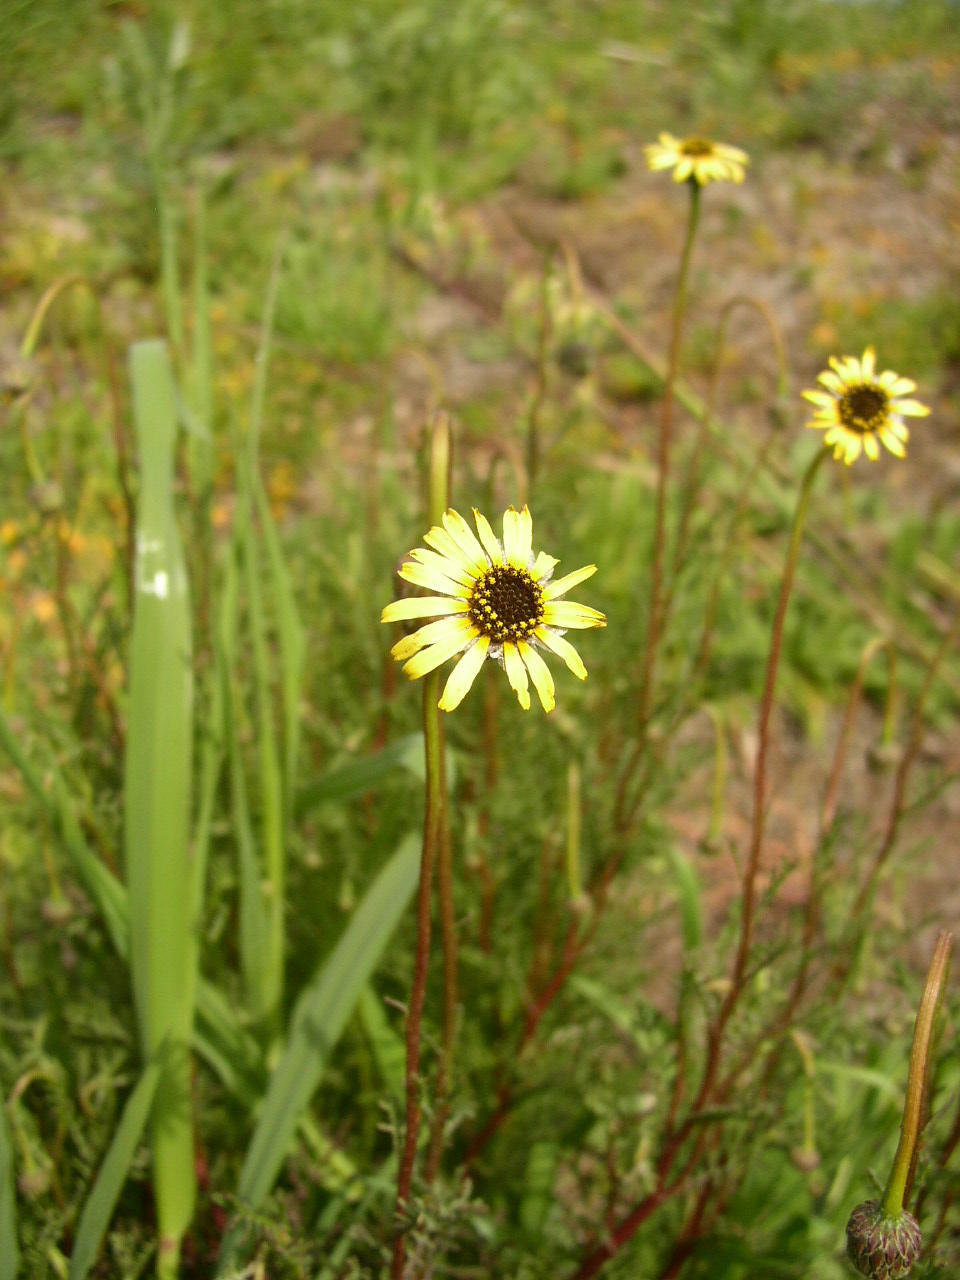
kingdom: Plantae
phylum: Tracheophyta
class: Magnoliopsida
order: Asterales
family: Asteraceae
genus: Ursinia
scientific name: Ursinia anthemoides
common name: Ursinia
